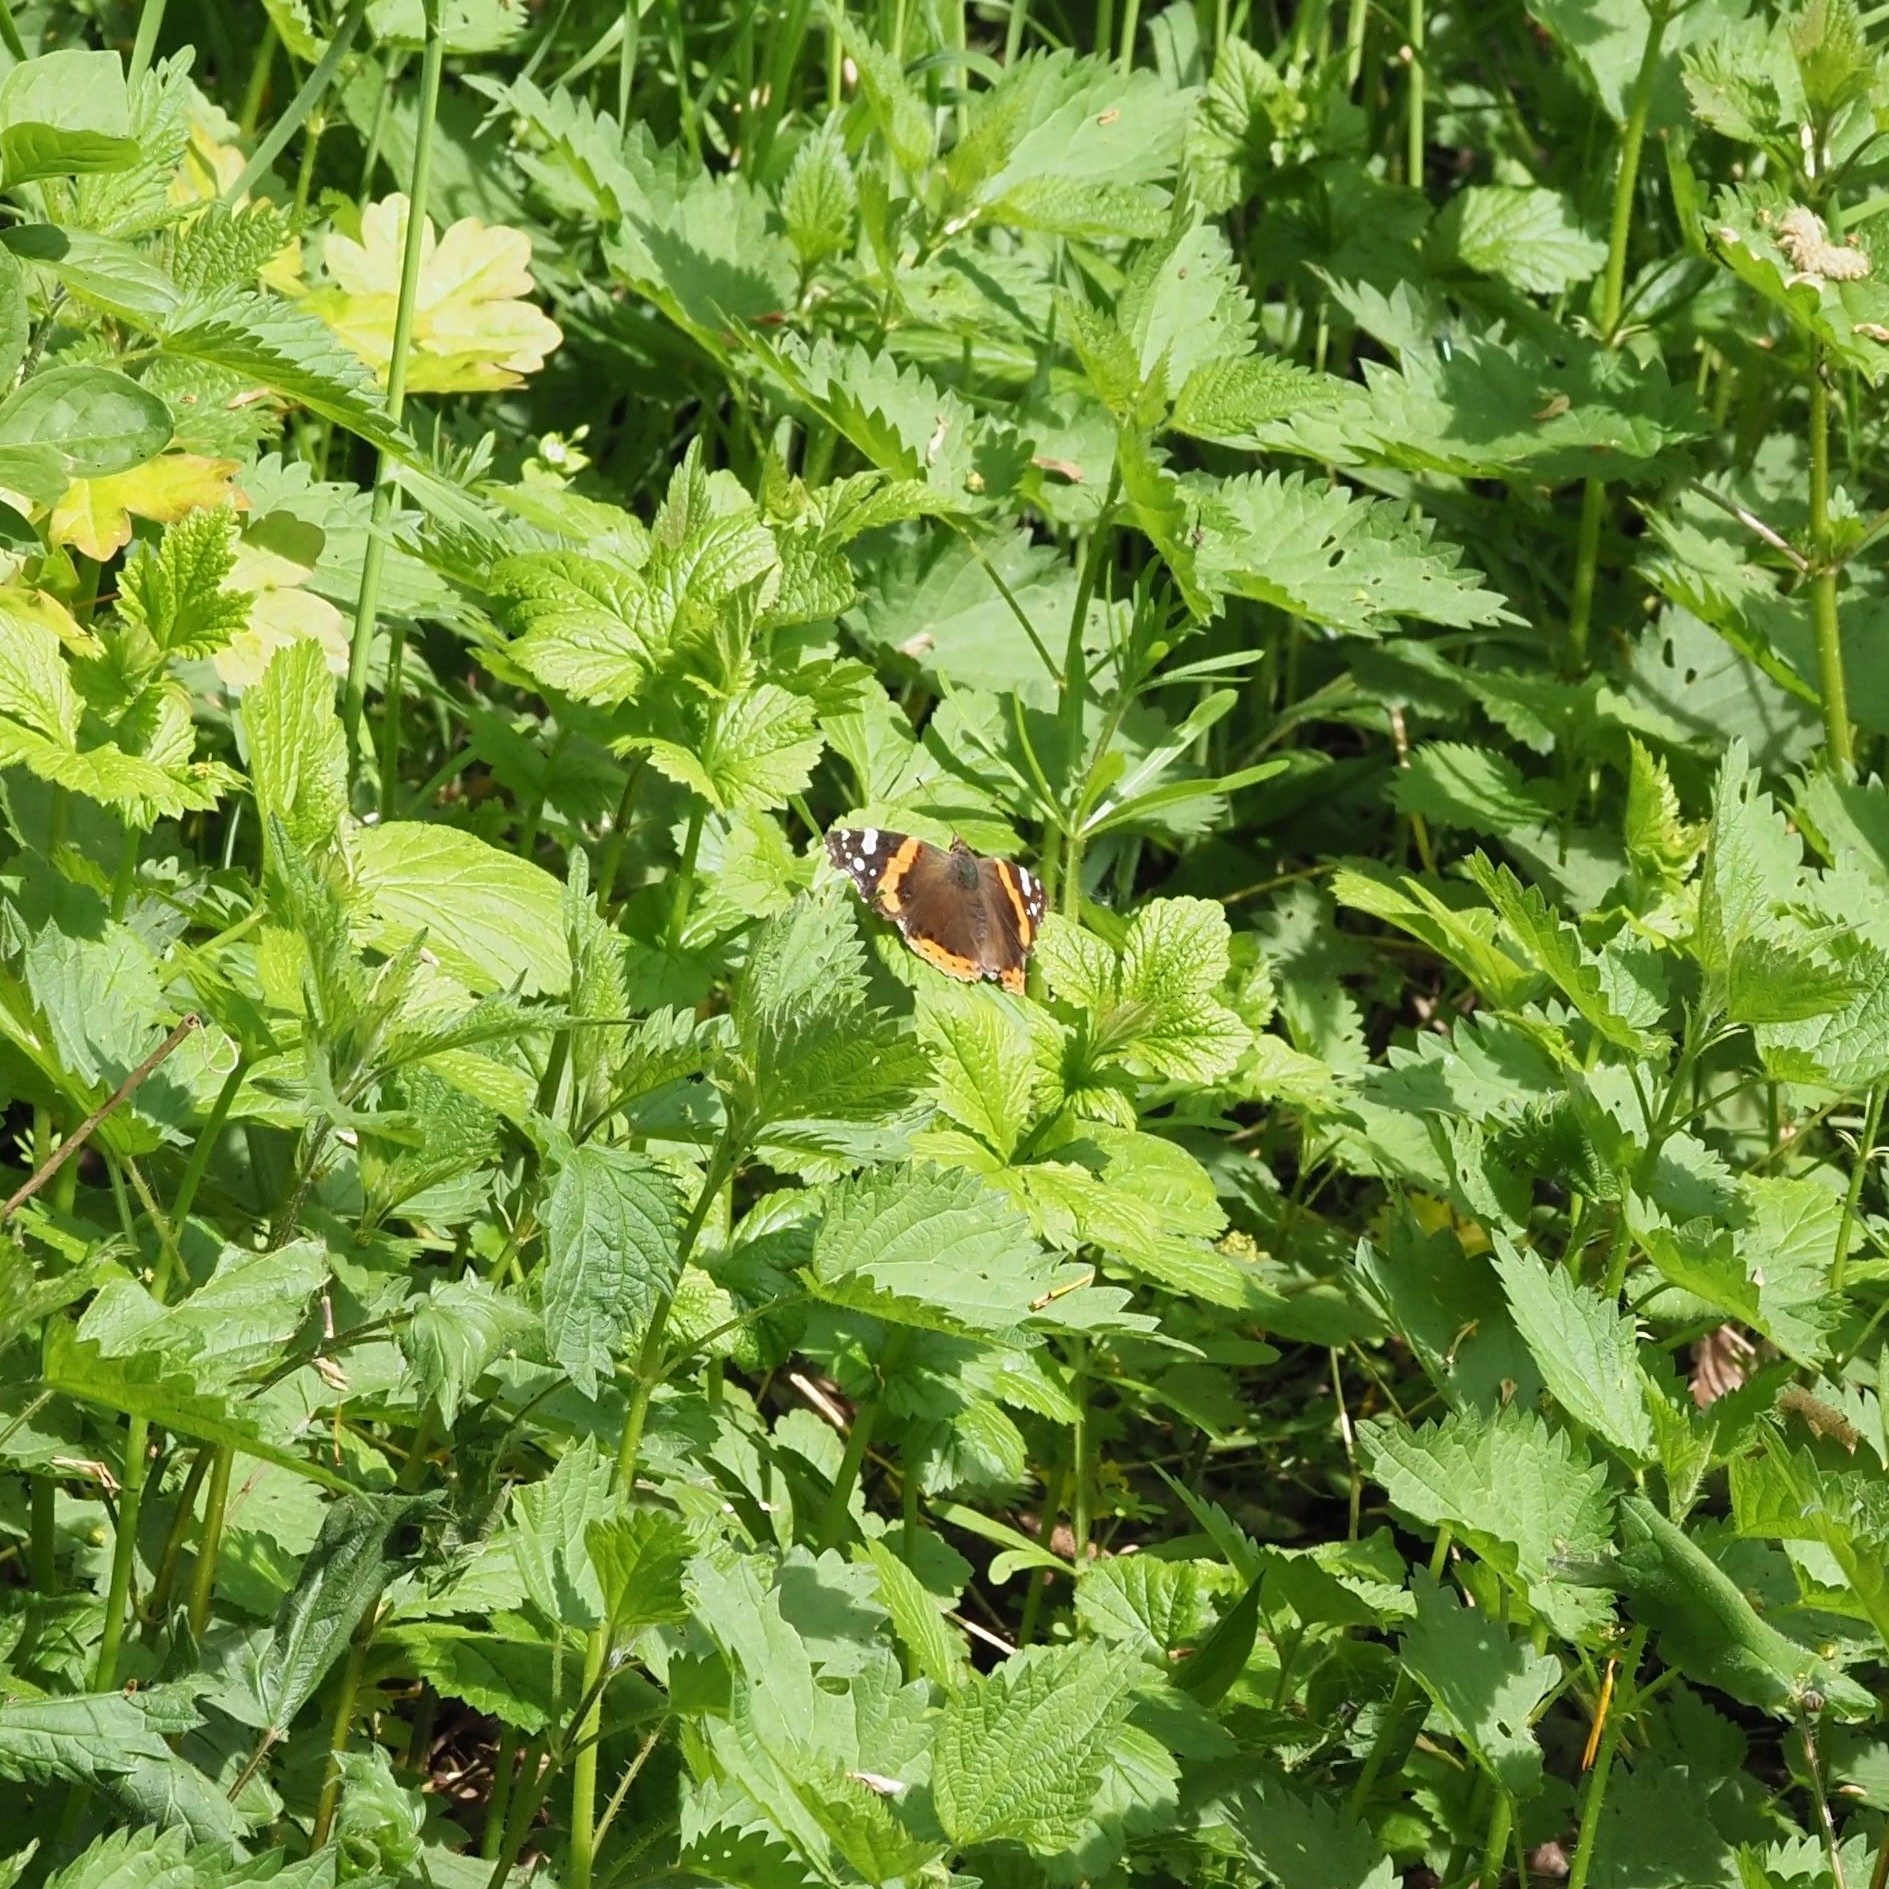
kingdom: Animalia
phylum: Arthropoda
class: Insecta
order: Lepidoptera
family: Nymphalidae
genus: Vanessa
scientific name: Vanessa atalanta
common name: Red admiral
